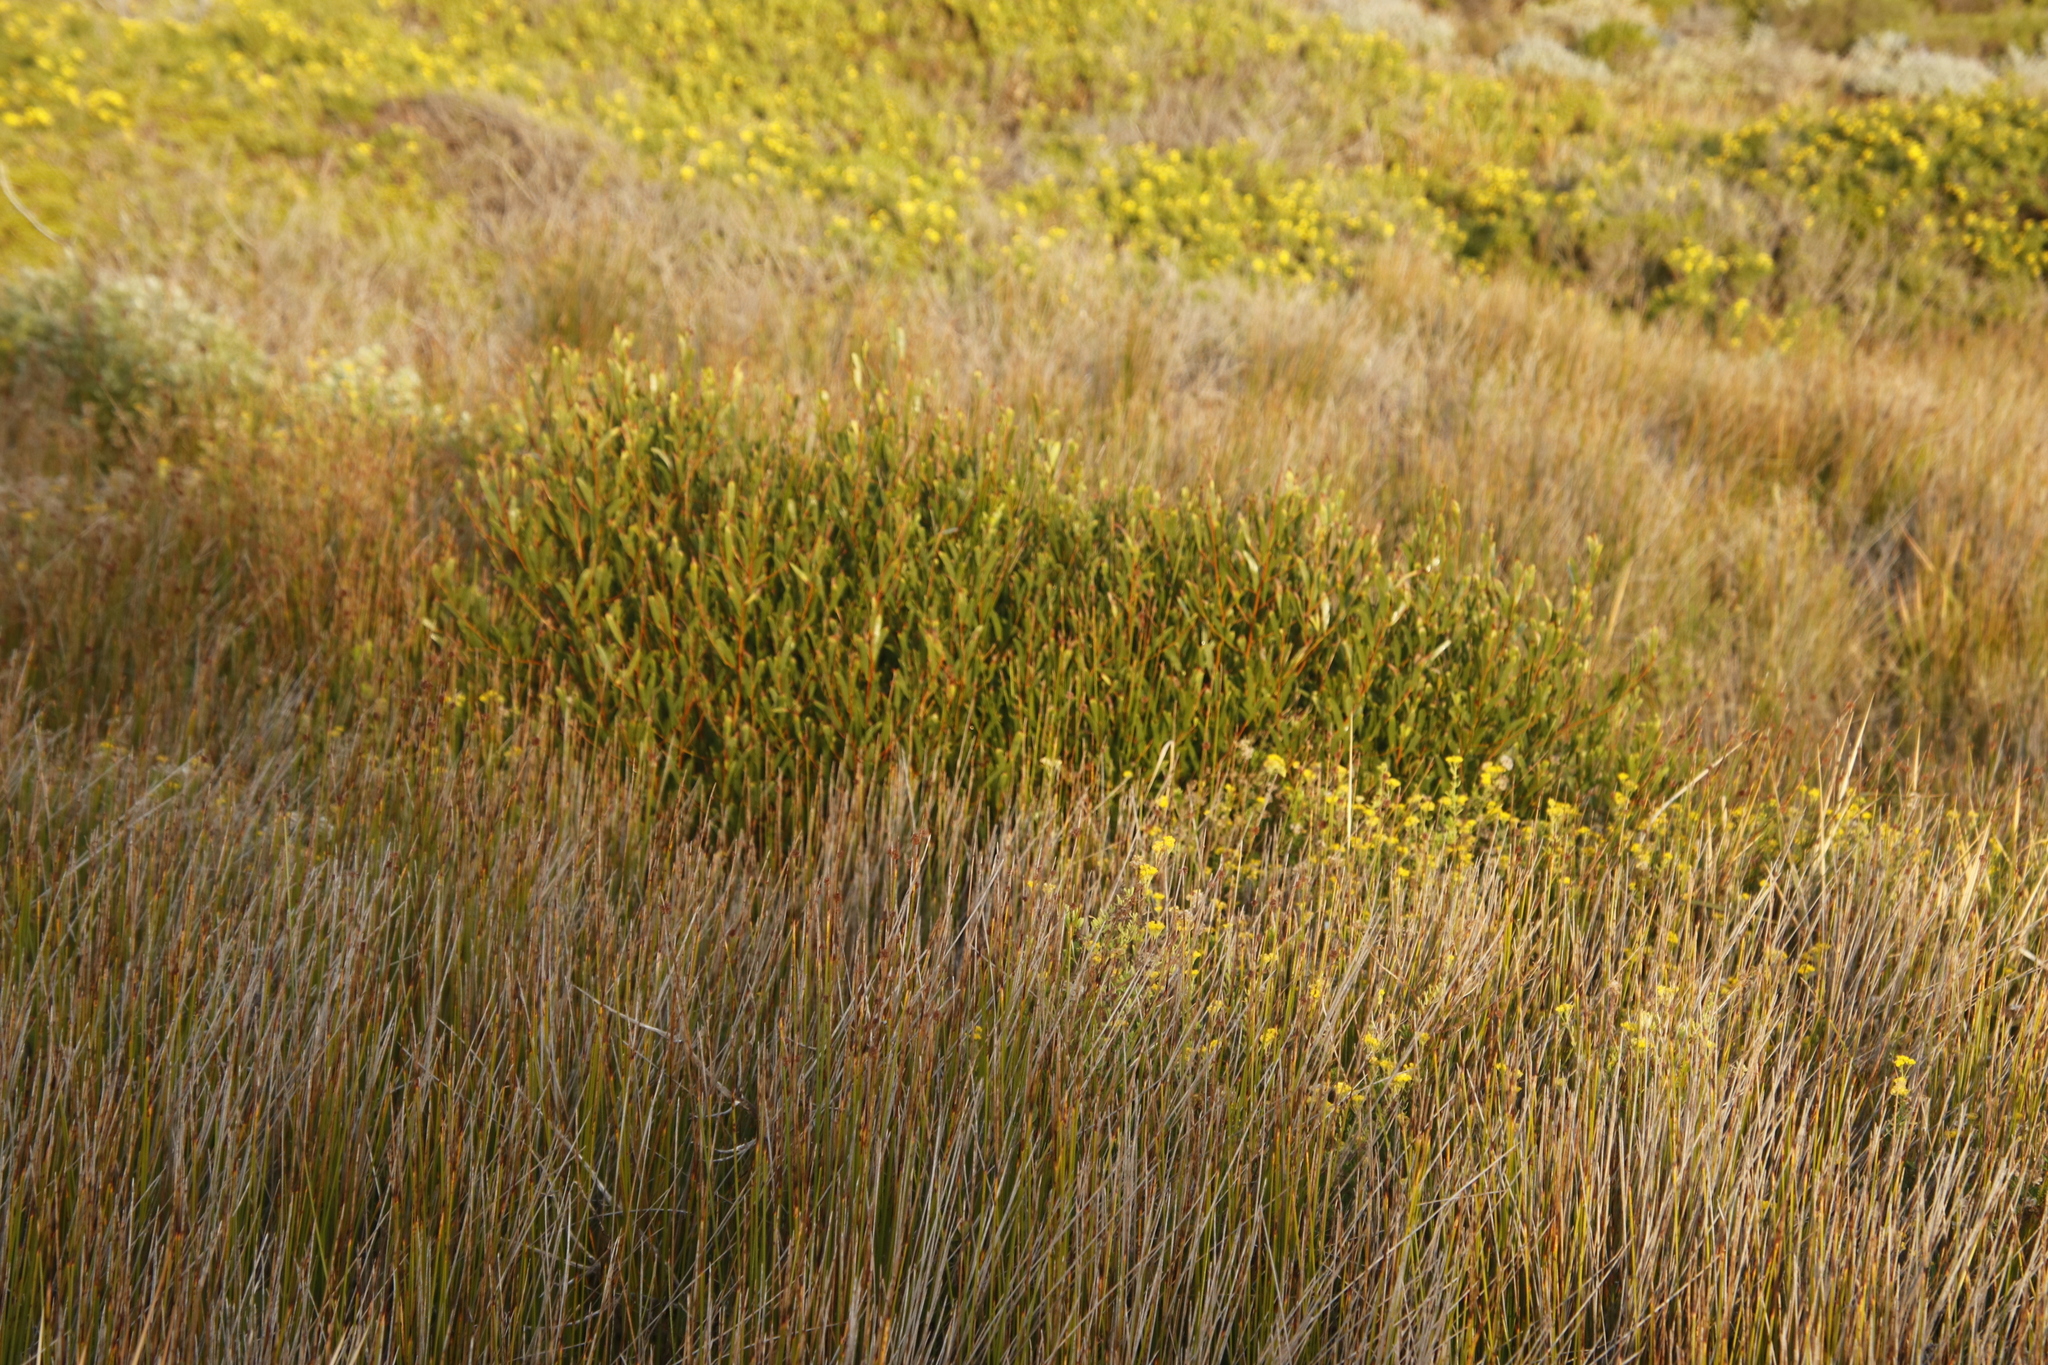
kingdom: Plantae
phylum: Tracheophyta
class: Magnoliopsida
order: Fabales
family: Fabaceae
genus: Acacia
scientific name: Acacia cyclops
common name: Coastal wattle
